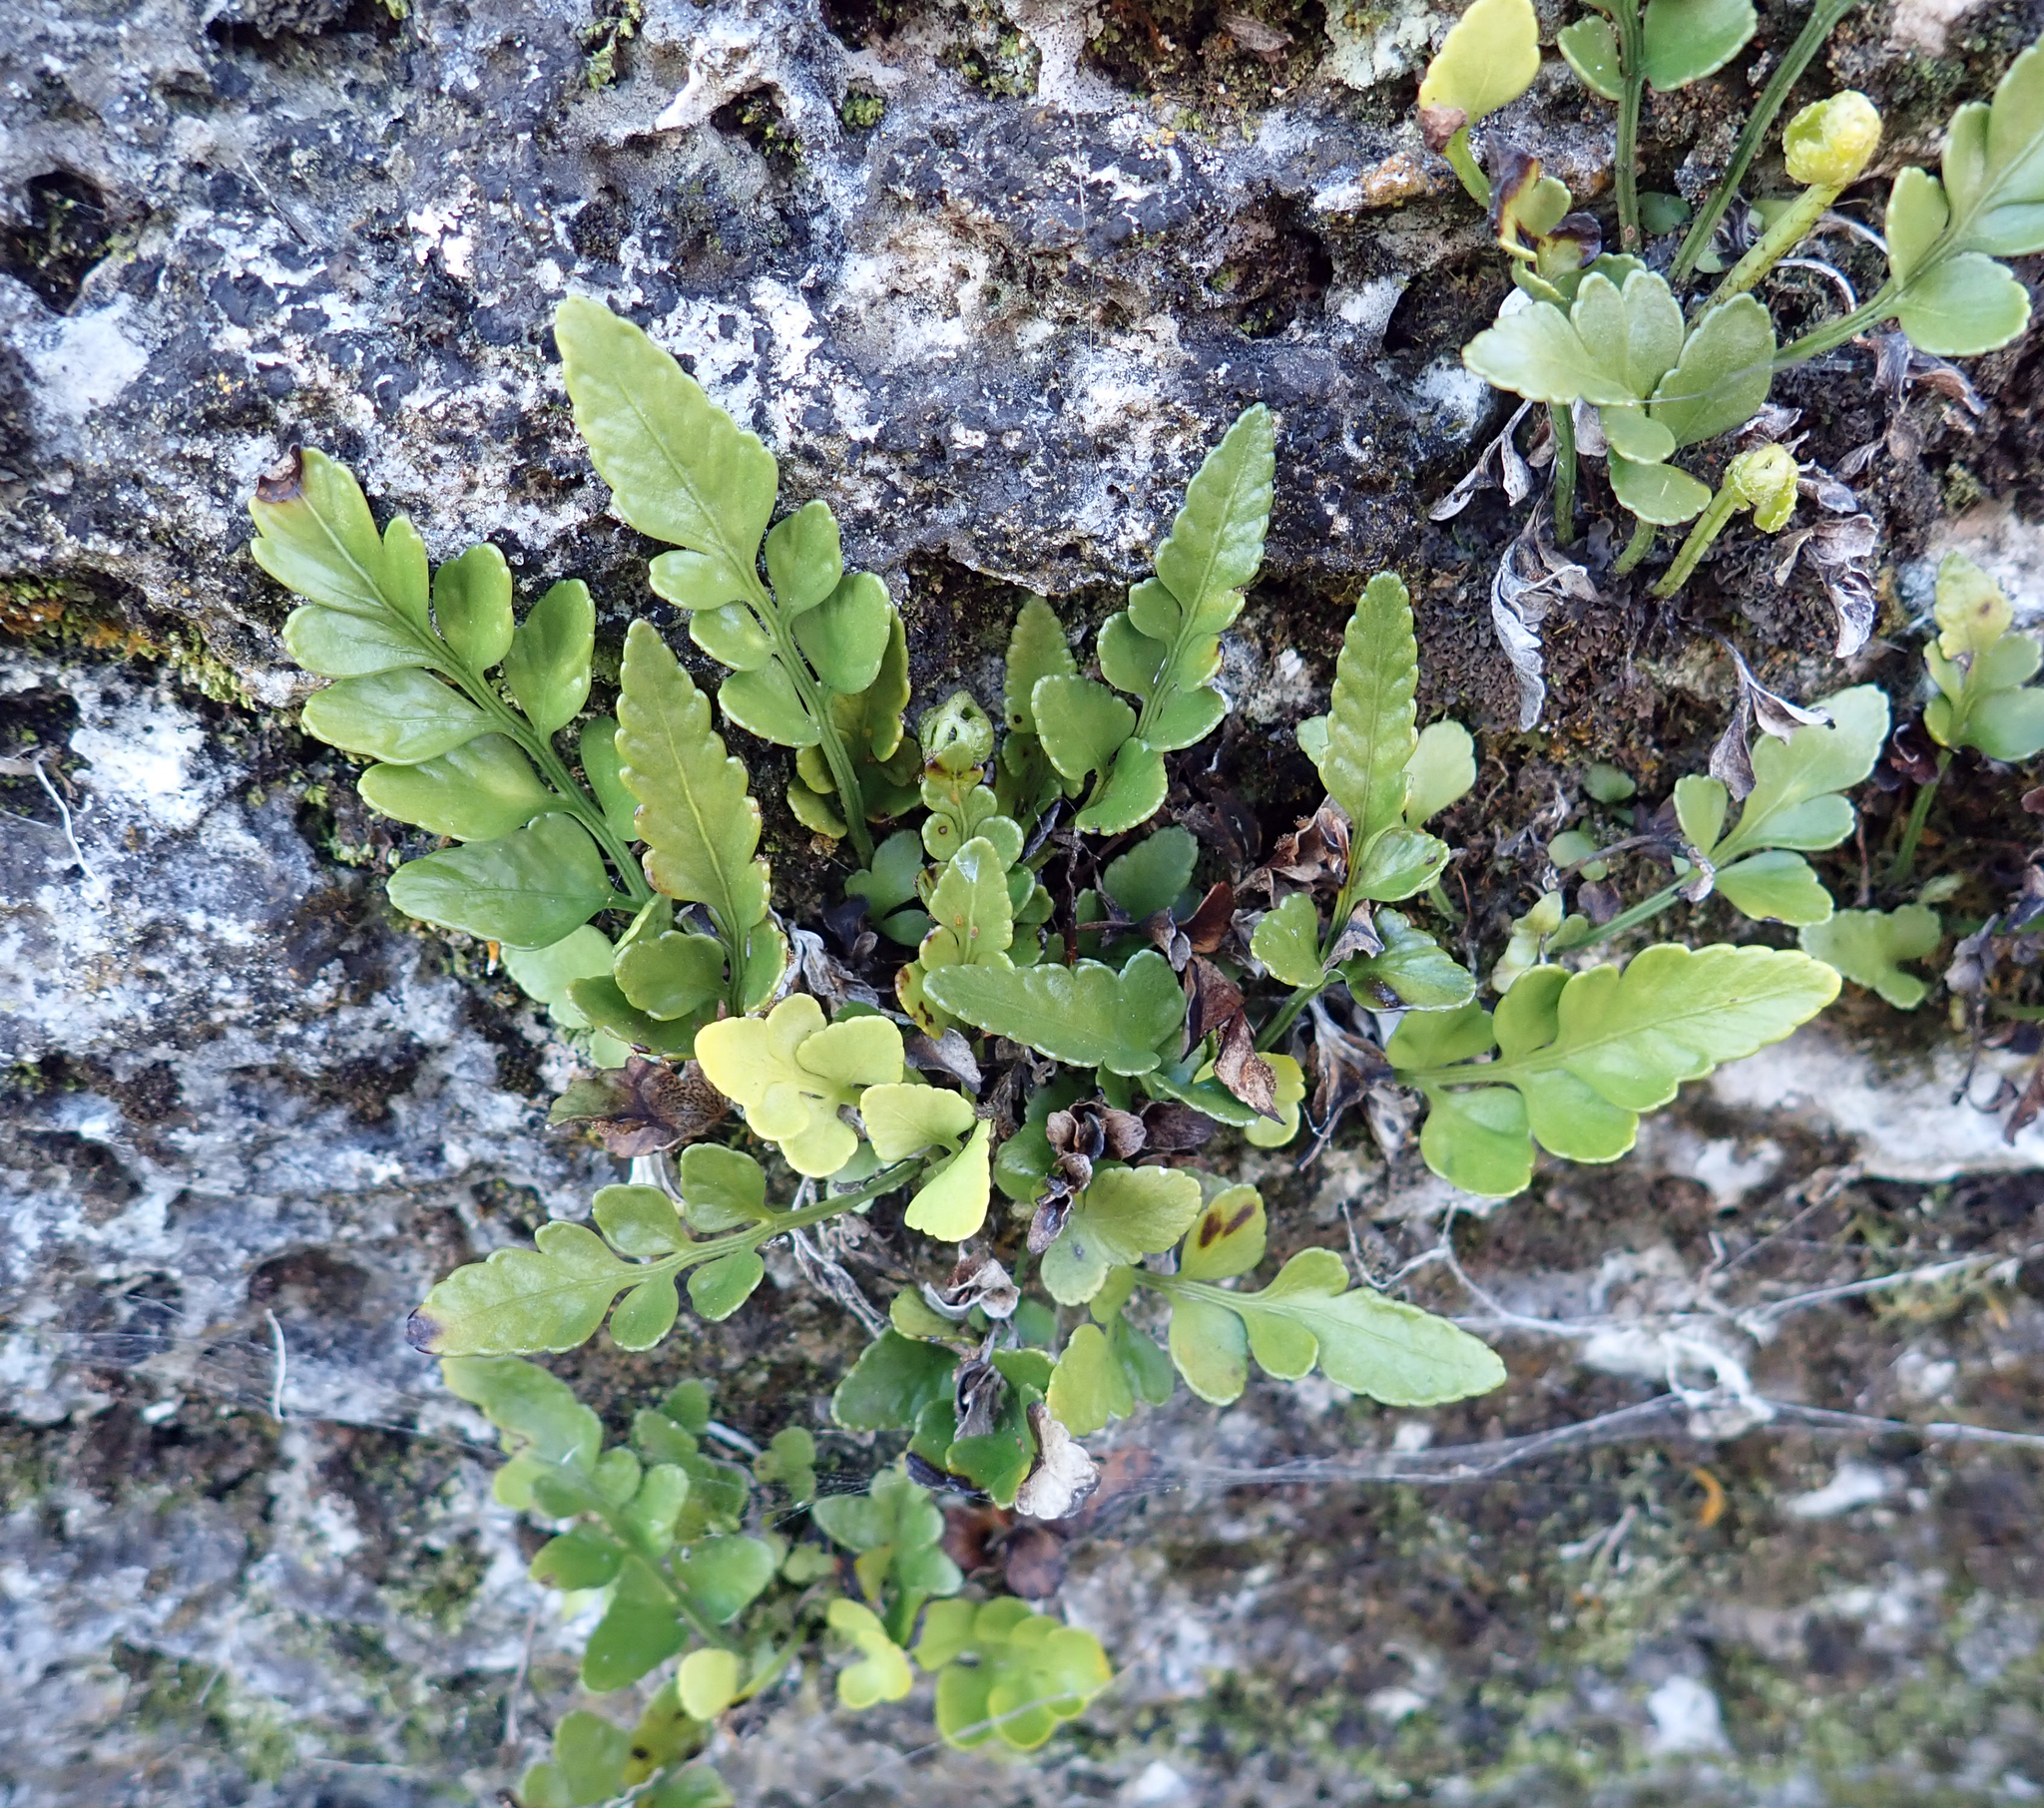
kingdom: Plantae
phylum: Tracheophyta
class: Polypodiopsida
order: Polypodiales
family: Aspleniaceae
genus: Asplenium
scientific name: Asplenium lyallii
